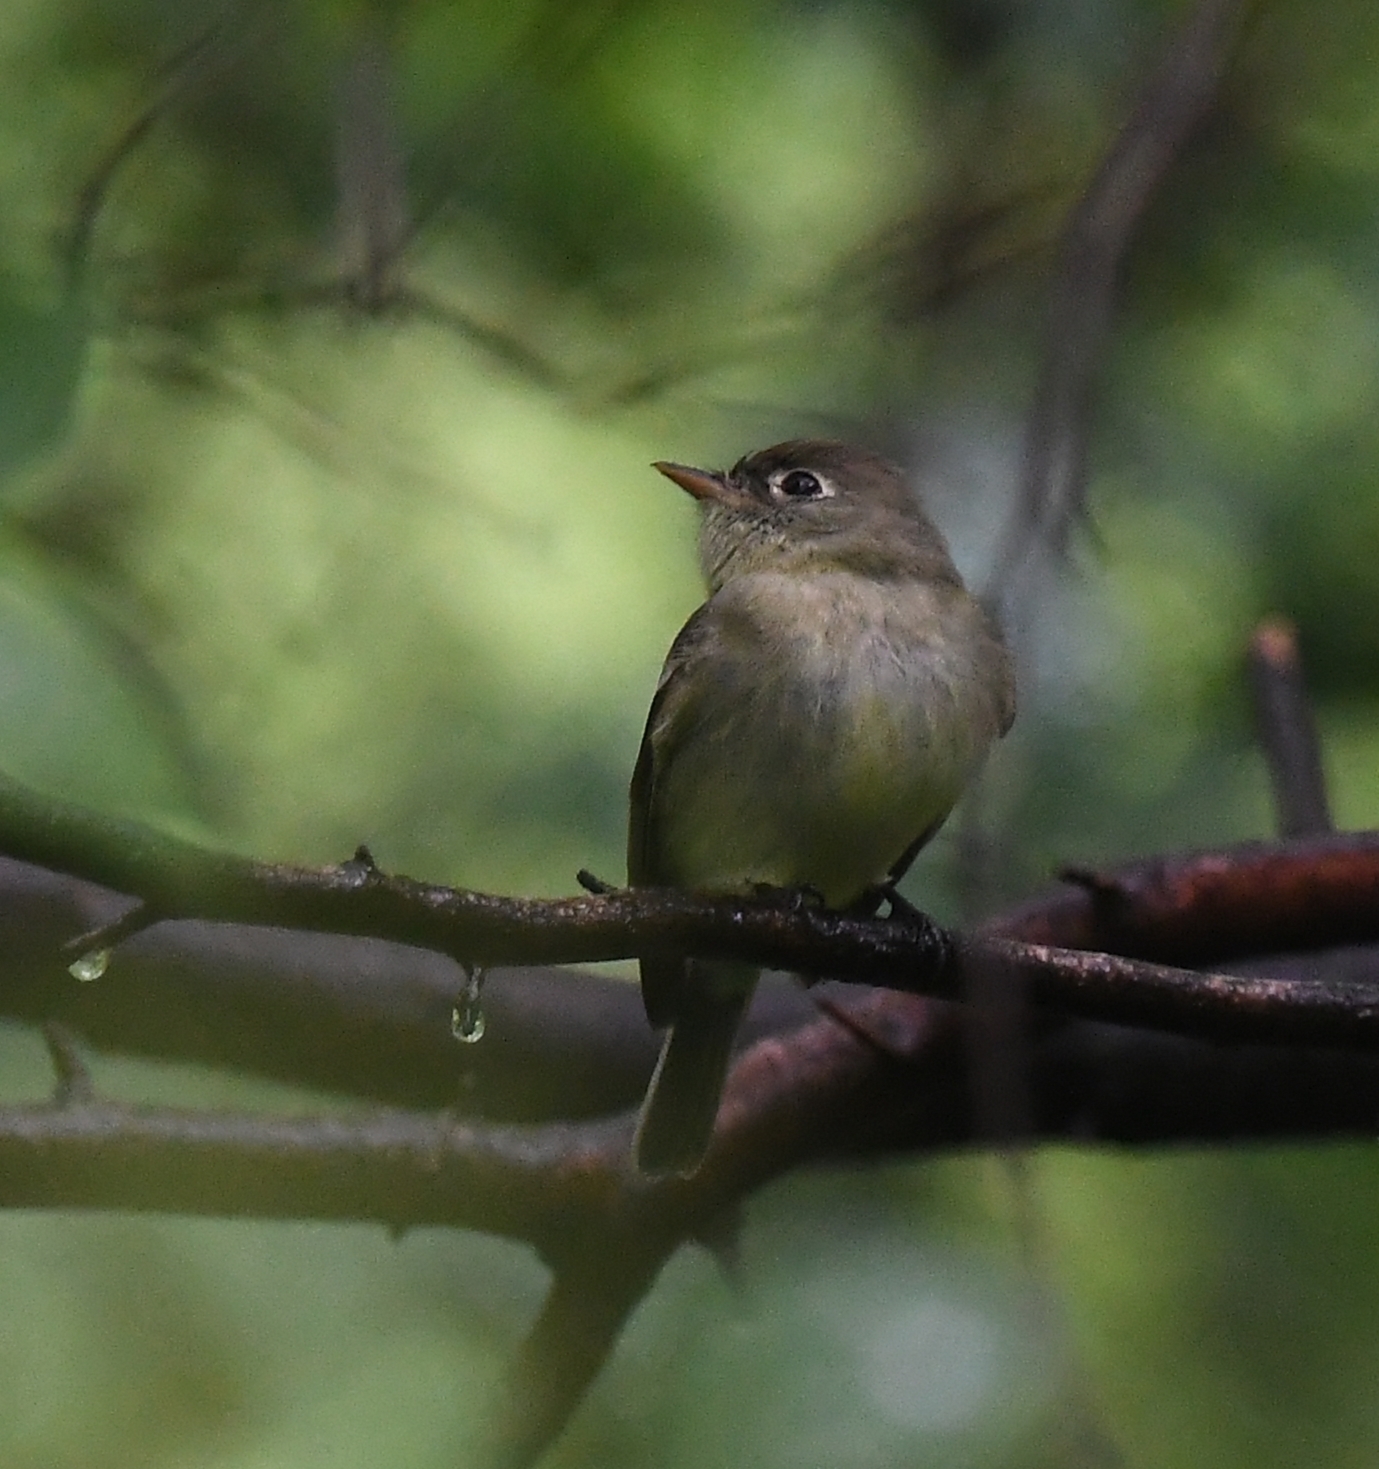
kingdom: Animalia
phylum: Chordata
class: Aves
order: Passeriformes
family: Tyrannidae
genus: Empidonax
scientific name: Empidonax flaviventris
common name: Yellow-bellied flycatcher
